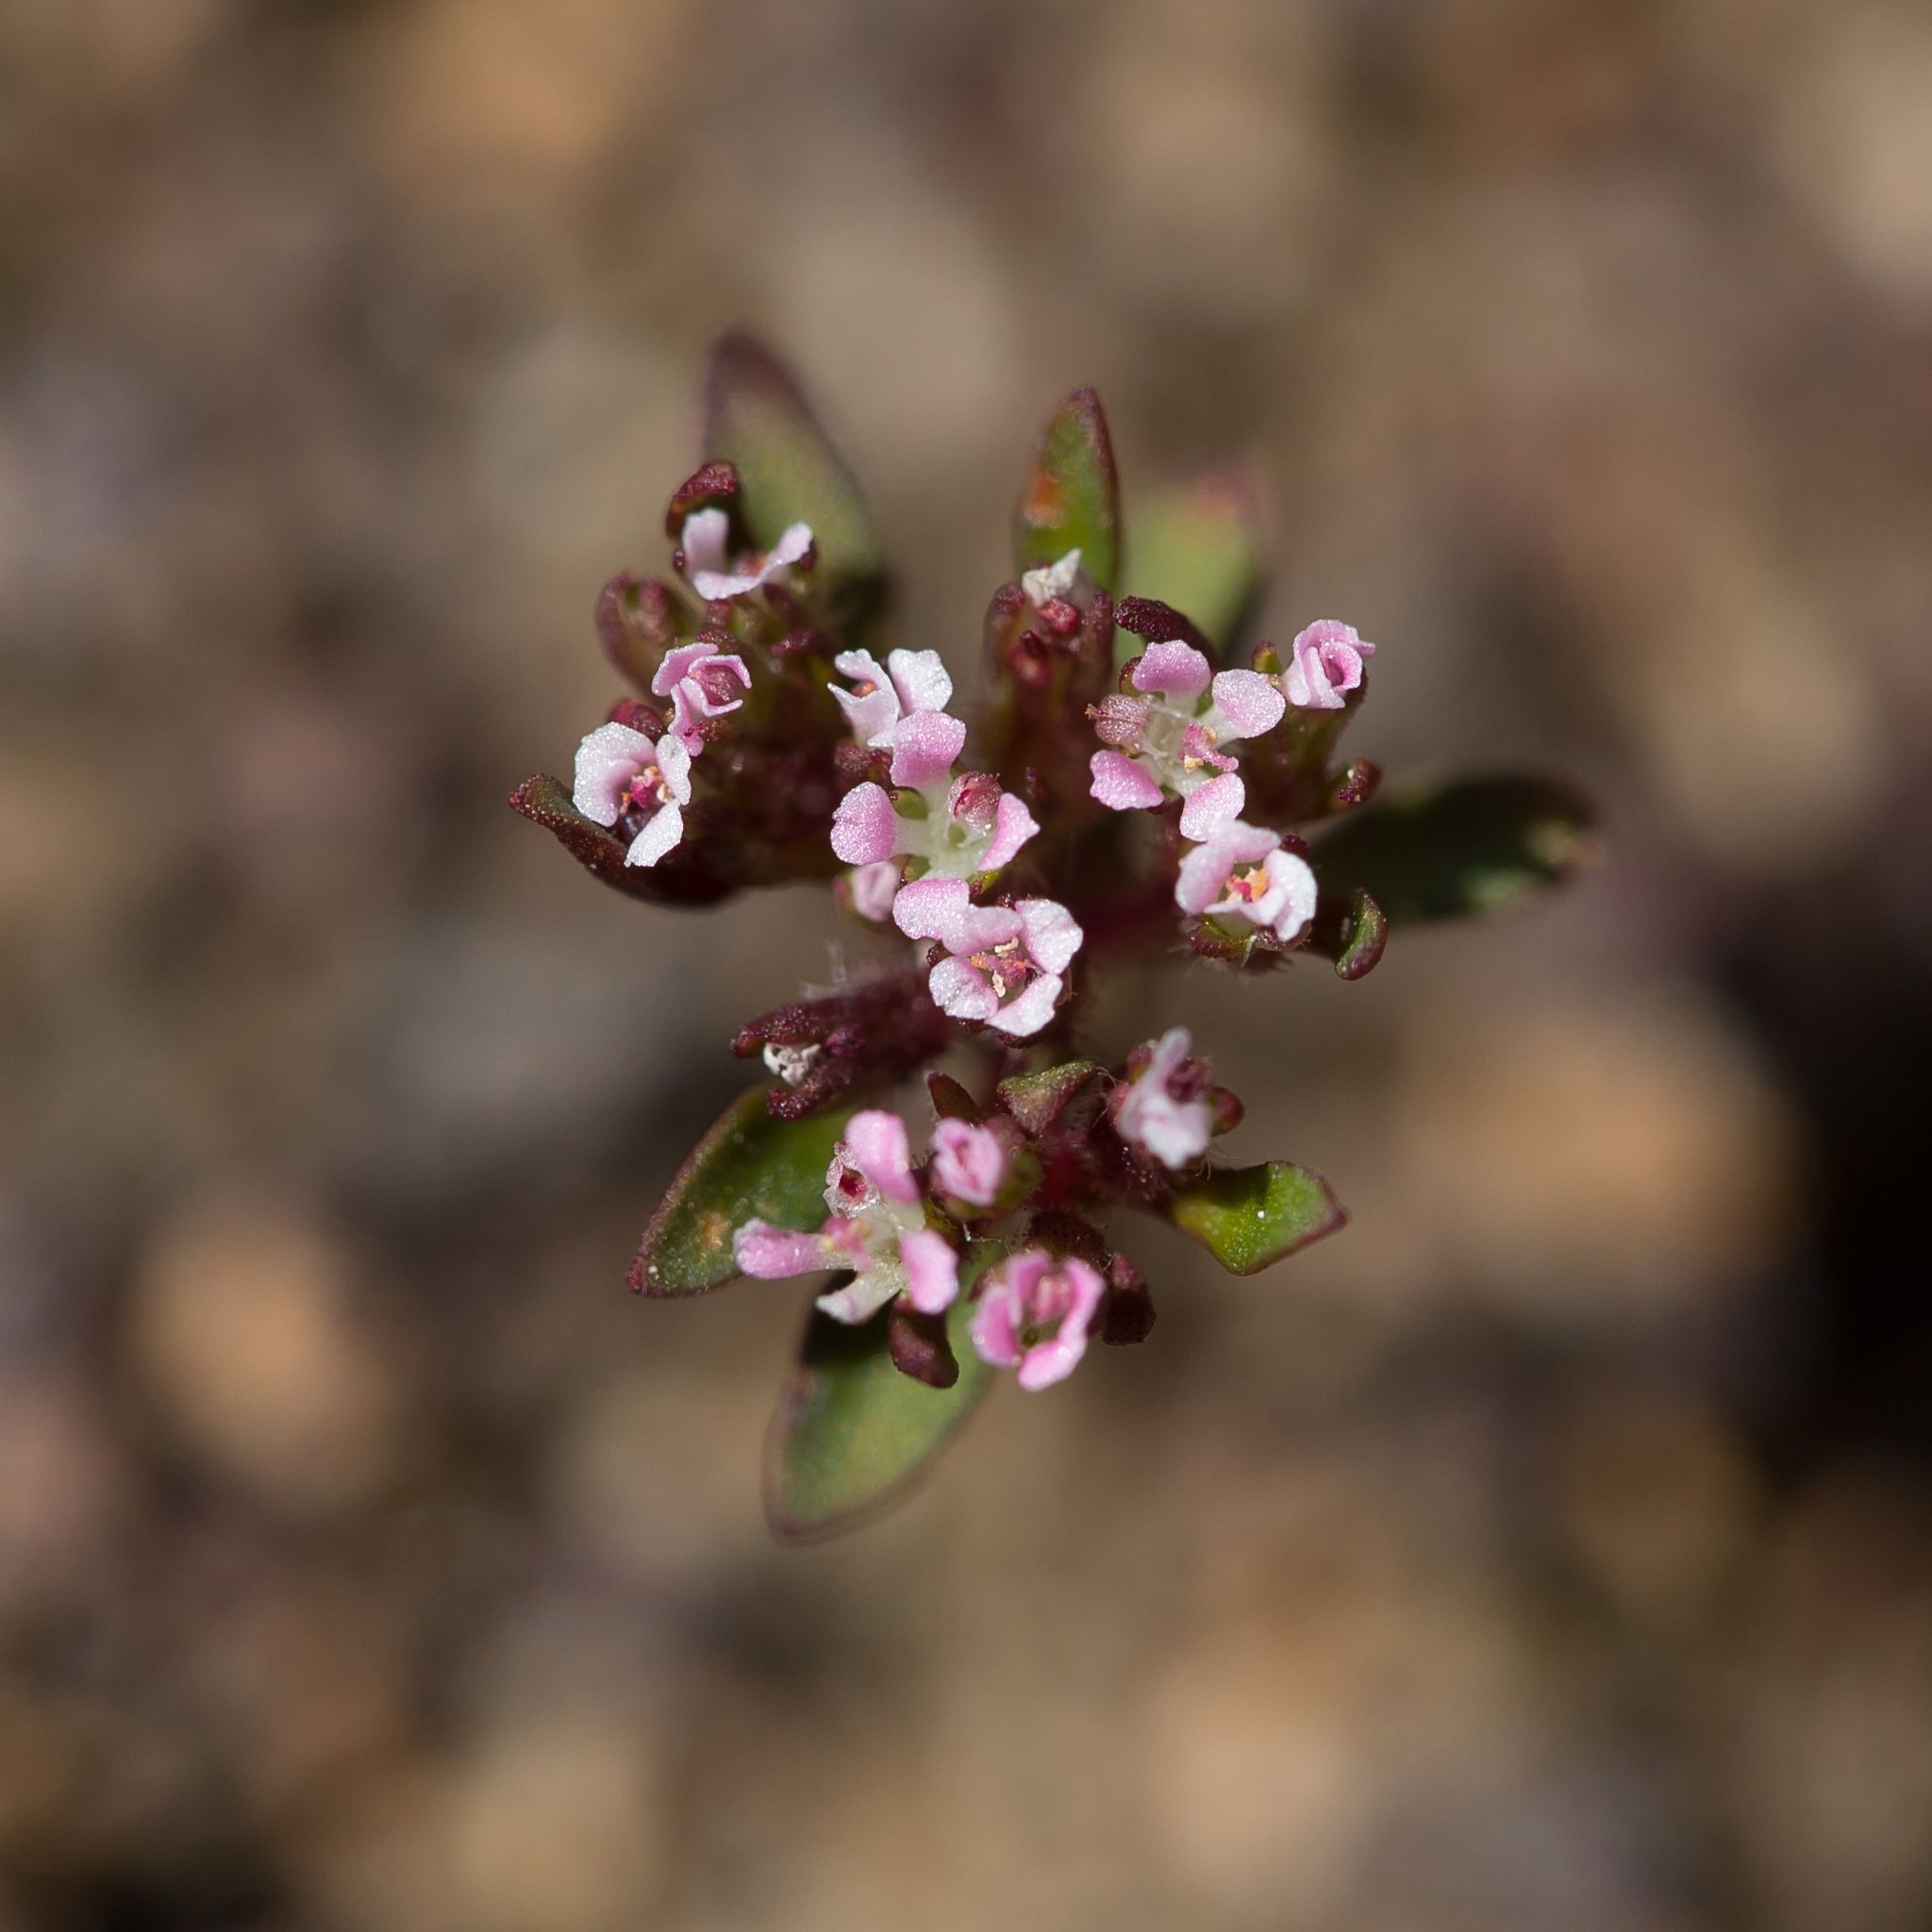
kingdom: Plantae
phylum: Tracheophyta
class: Magnoliopsida
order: Asterales
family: Stylidiaceae
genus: Levenhookia
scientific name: Levenhookia pusilla
